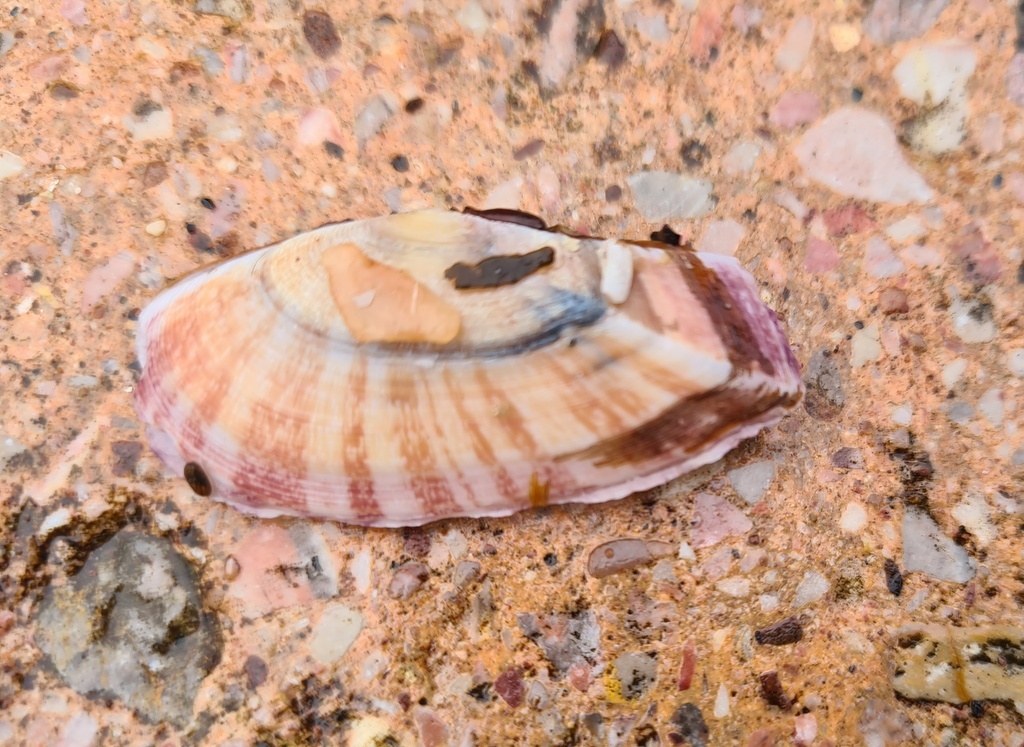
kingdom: Animalia
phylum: Mollusca
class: Bivalvia
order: Cardiida
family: Psammobiidae
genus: Gari
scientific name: Gari fervensis
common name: Faroe sunset shell
